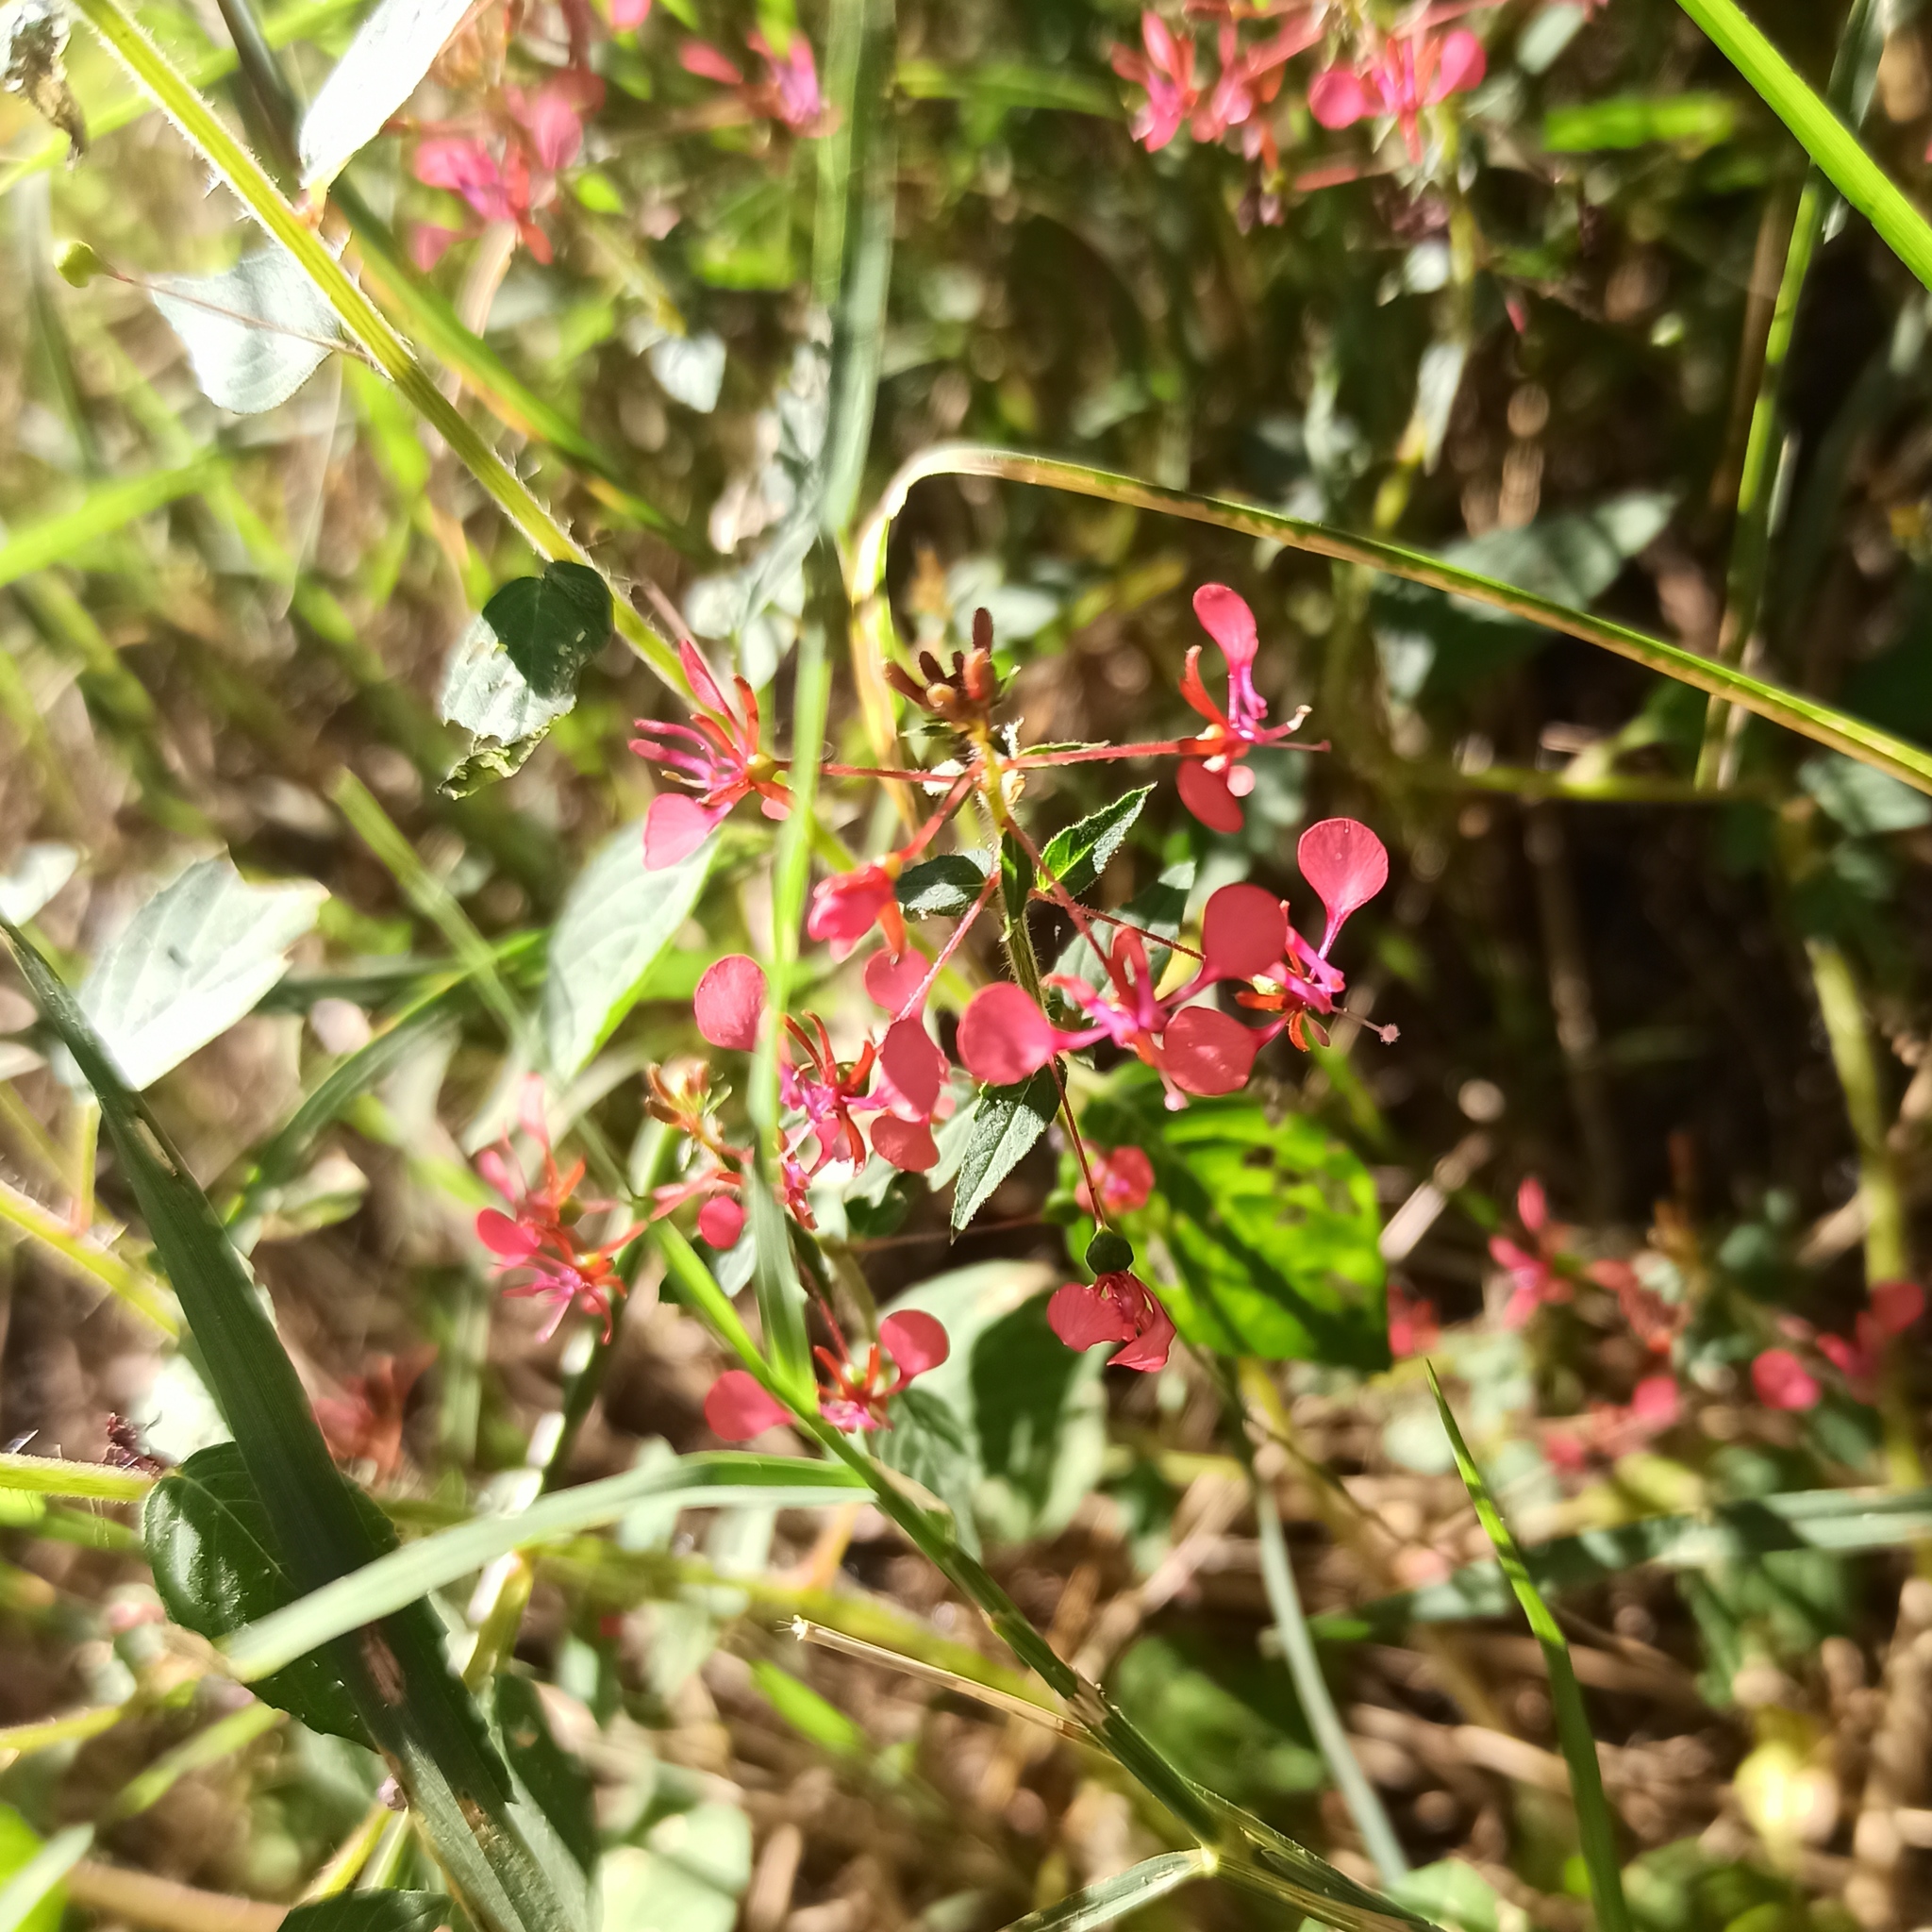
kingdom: Plantae
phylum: Tracheophyta
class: Magnoliopsida
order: Myrtales
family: Onagraceae
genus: Lopezia
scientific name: Lopezia racemosa
